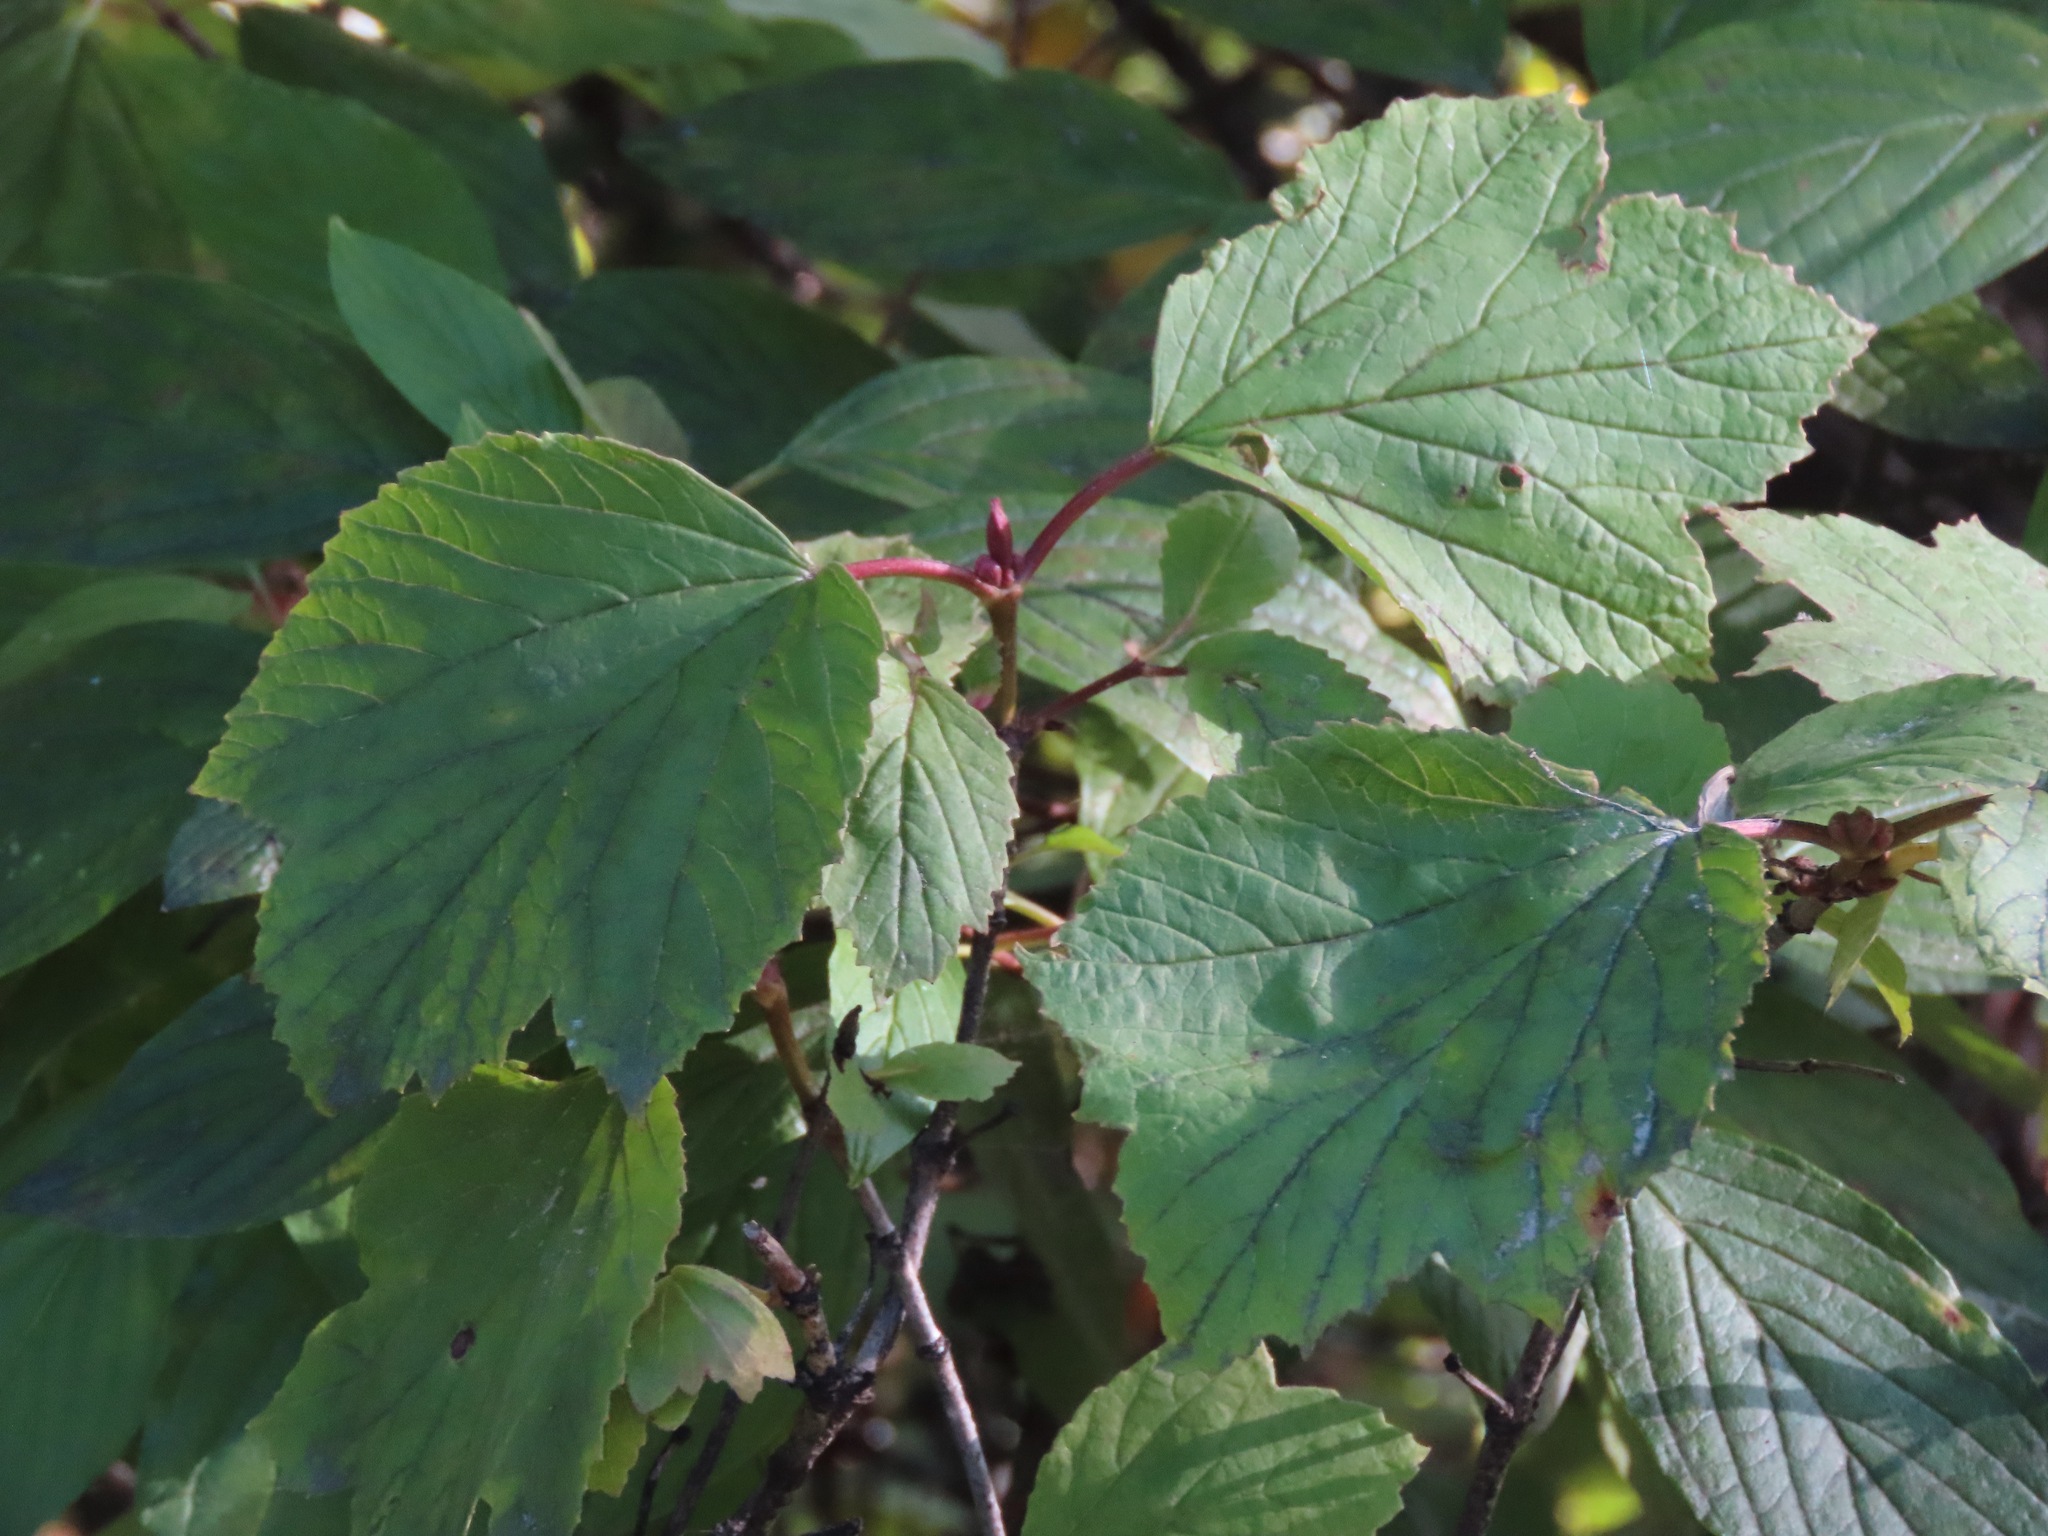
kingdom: Plantae
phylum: Tracheophyta
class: Magnoliopsida
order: Dipsacales
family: Viburnaceae
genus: Viburnum
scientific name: Viburnum edule
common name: Mooseberry
